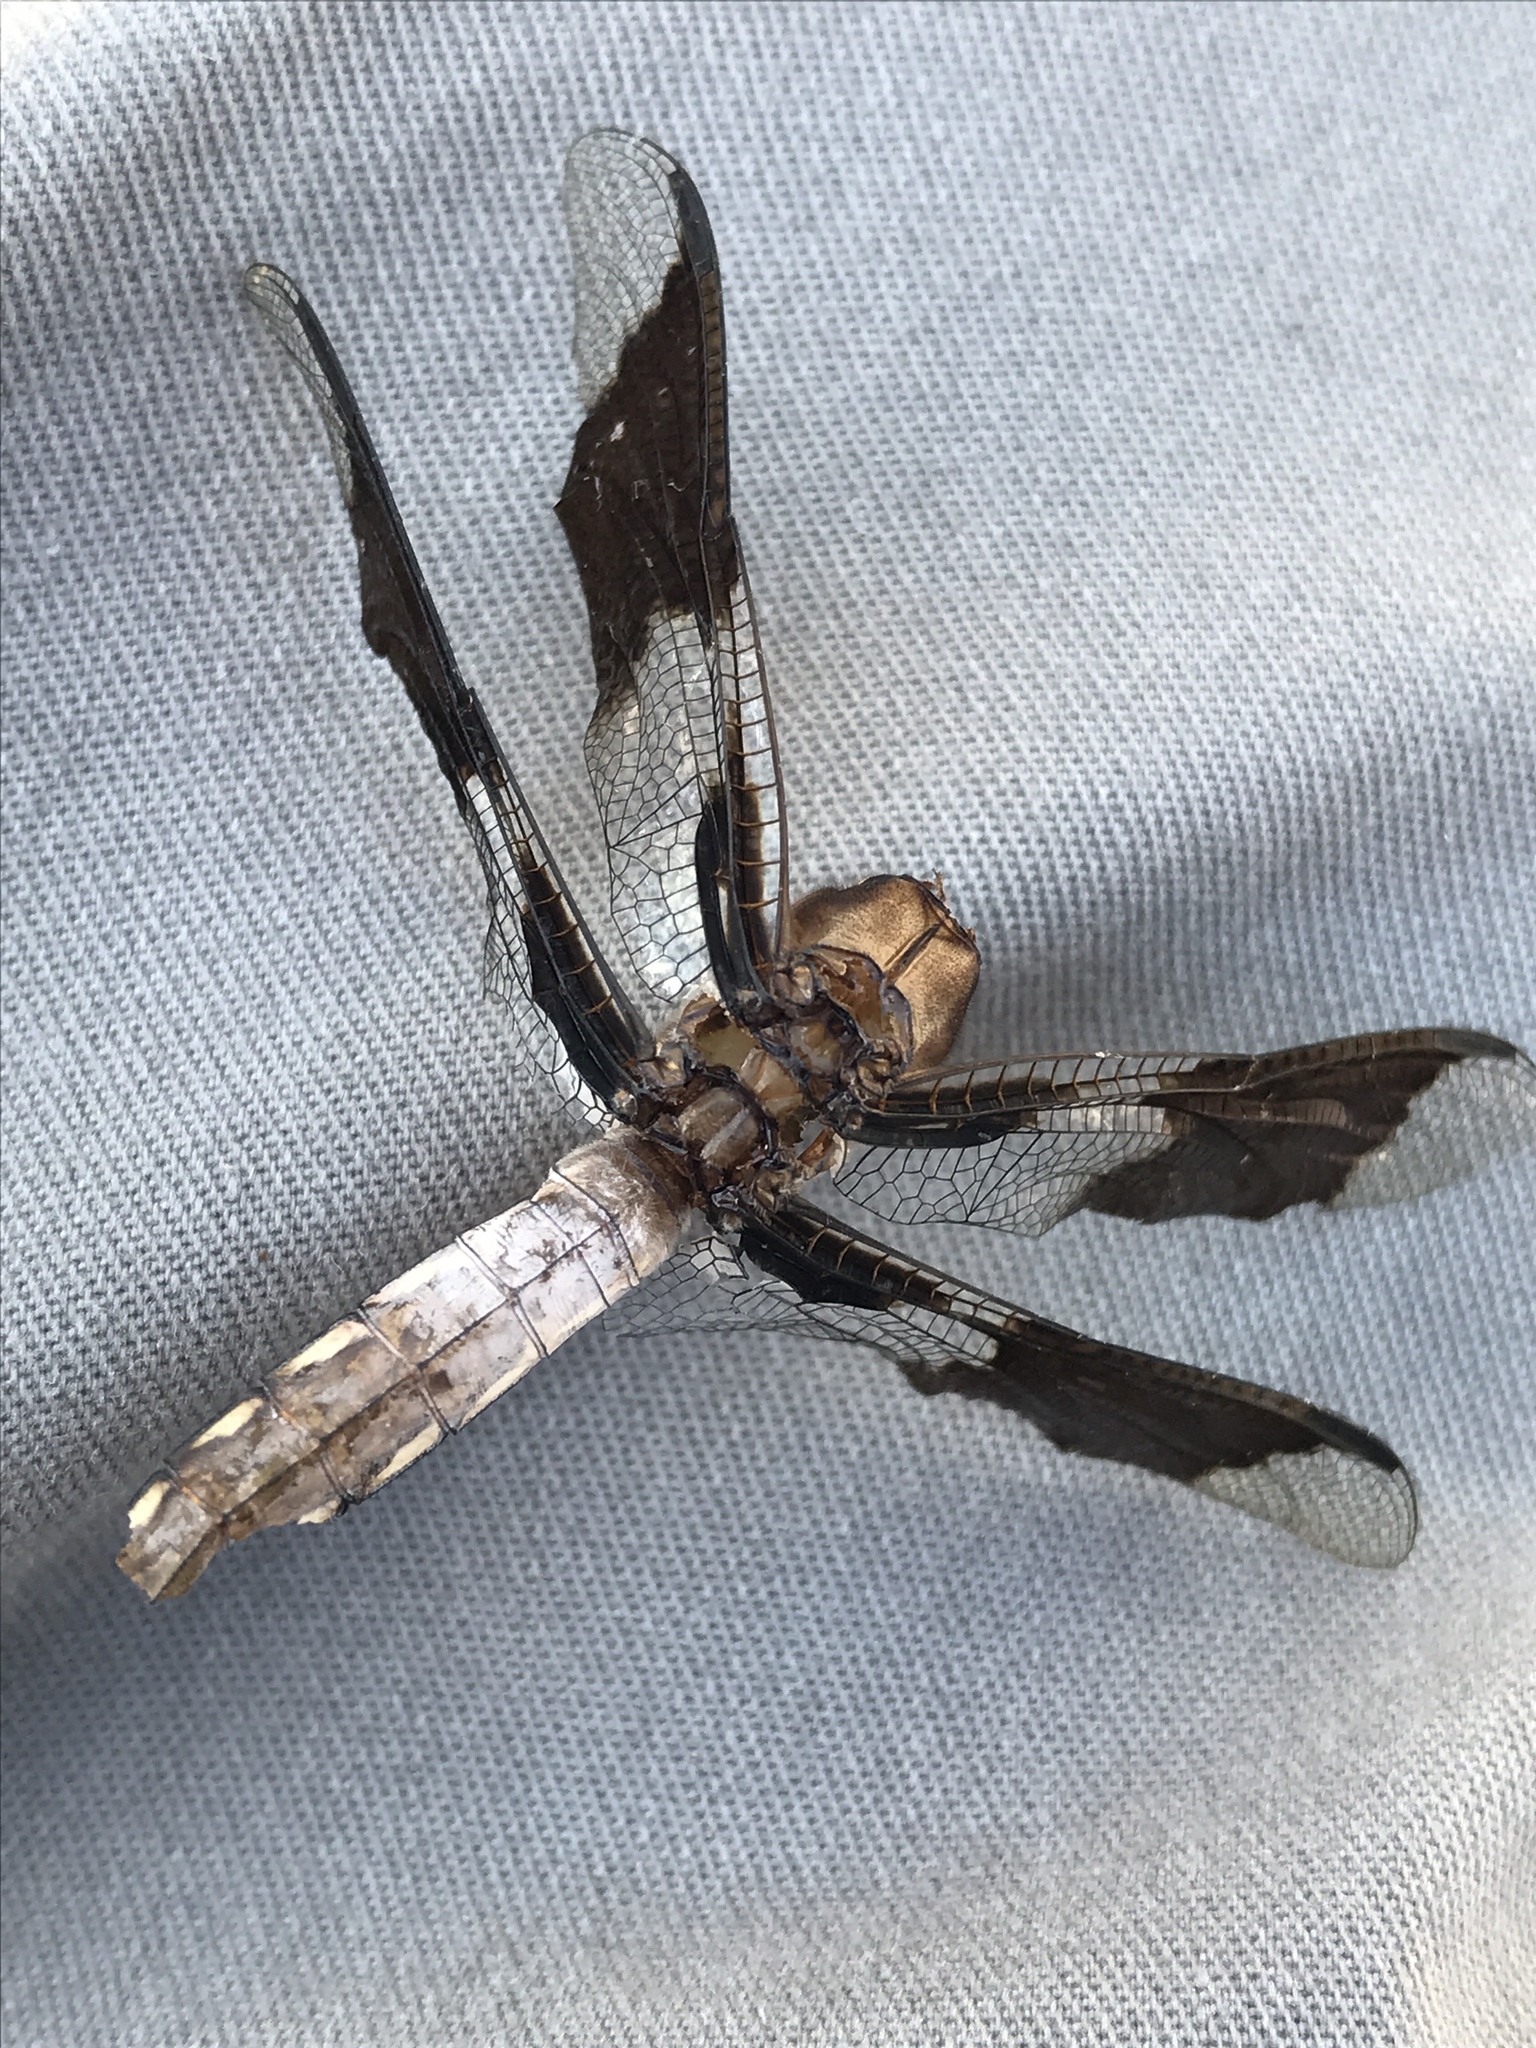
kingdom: Animalia
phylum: Arthropoda
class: Insecta
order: Odonata
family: Libellulidae
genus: Plathemis
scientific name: Plathemis lydia
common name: Common whitetail
